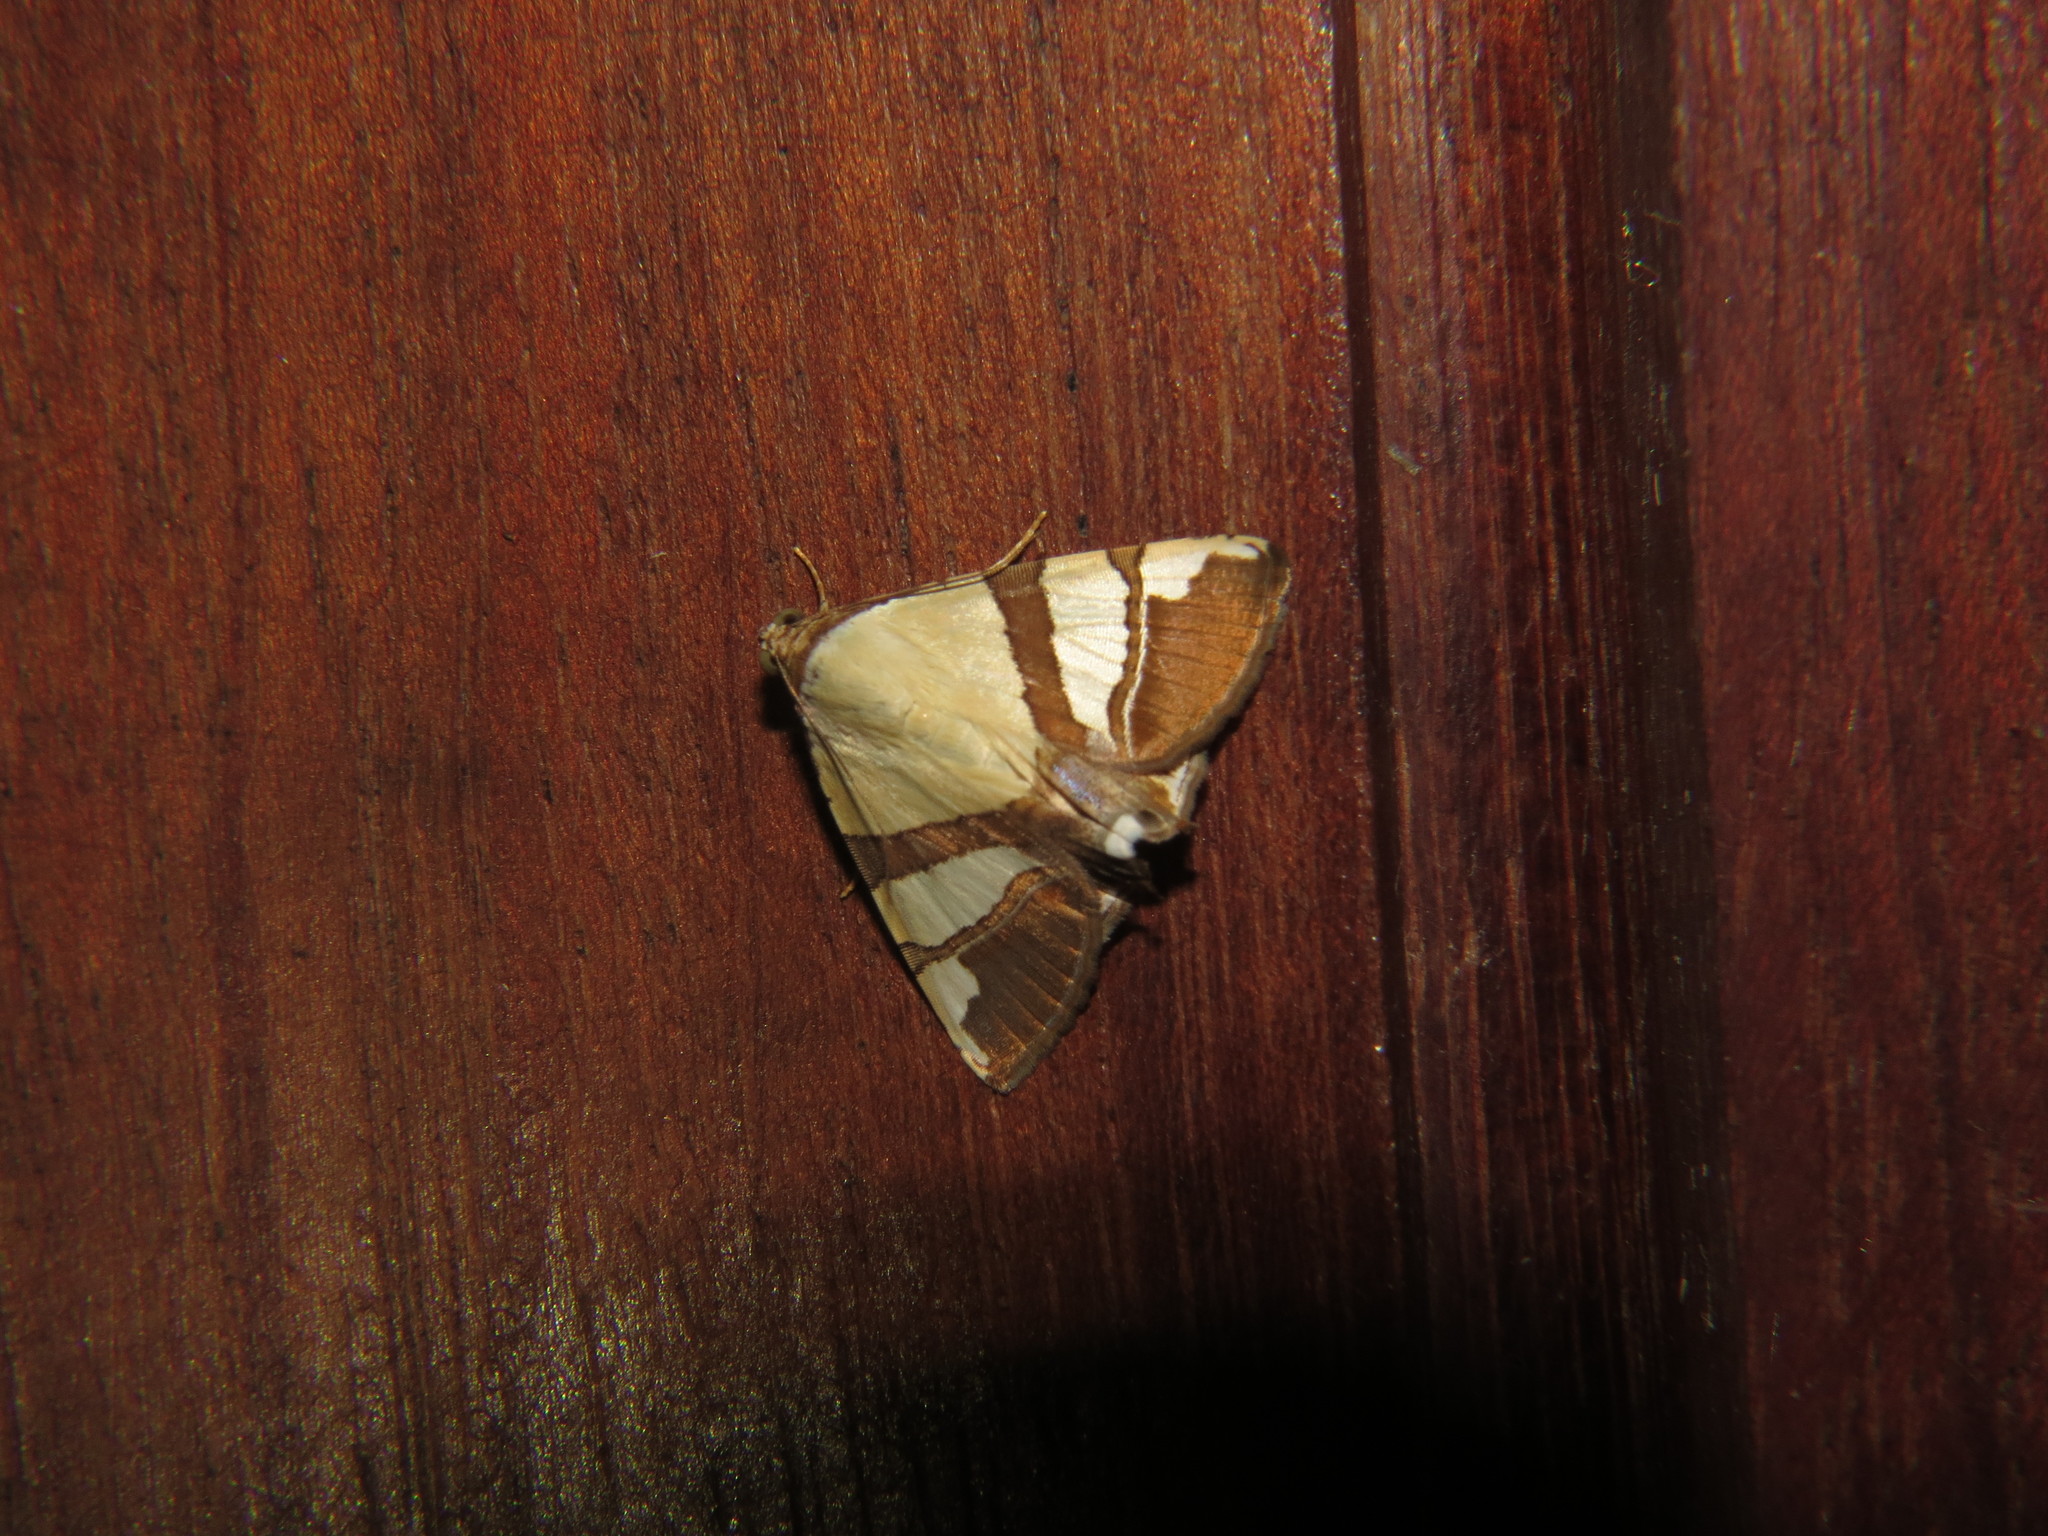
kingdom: Animalia
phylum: Arthropoda
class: Insecta
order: Lepidoptera
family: Erebidae
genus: Eulepidotis
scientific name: Eulepidotis julianata
